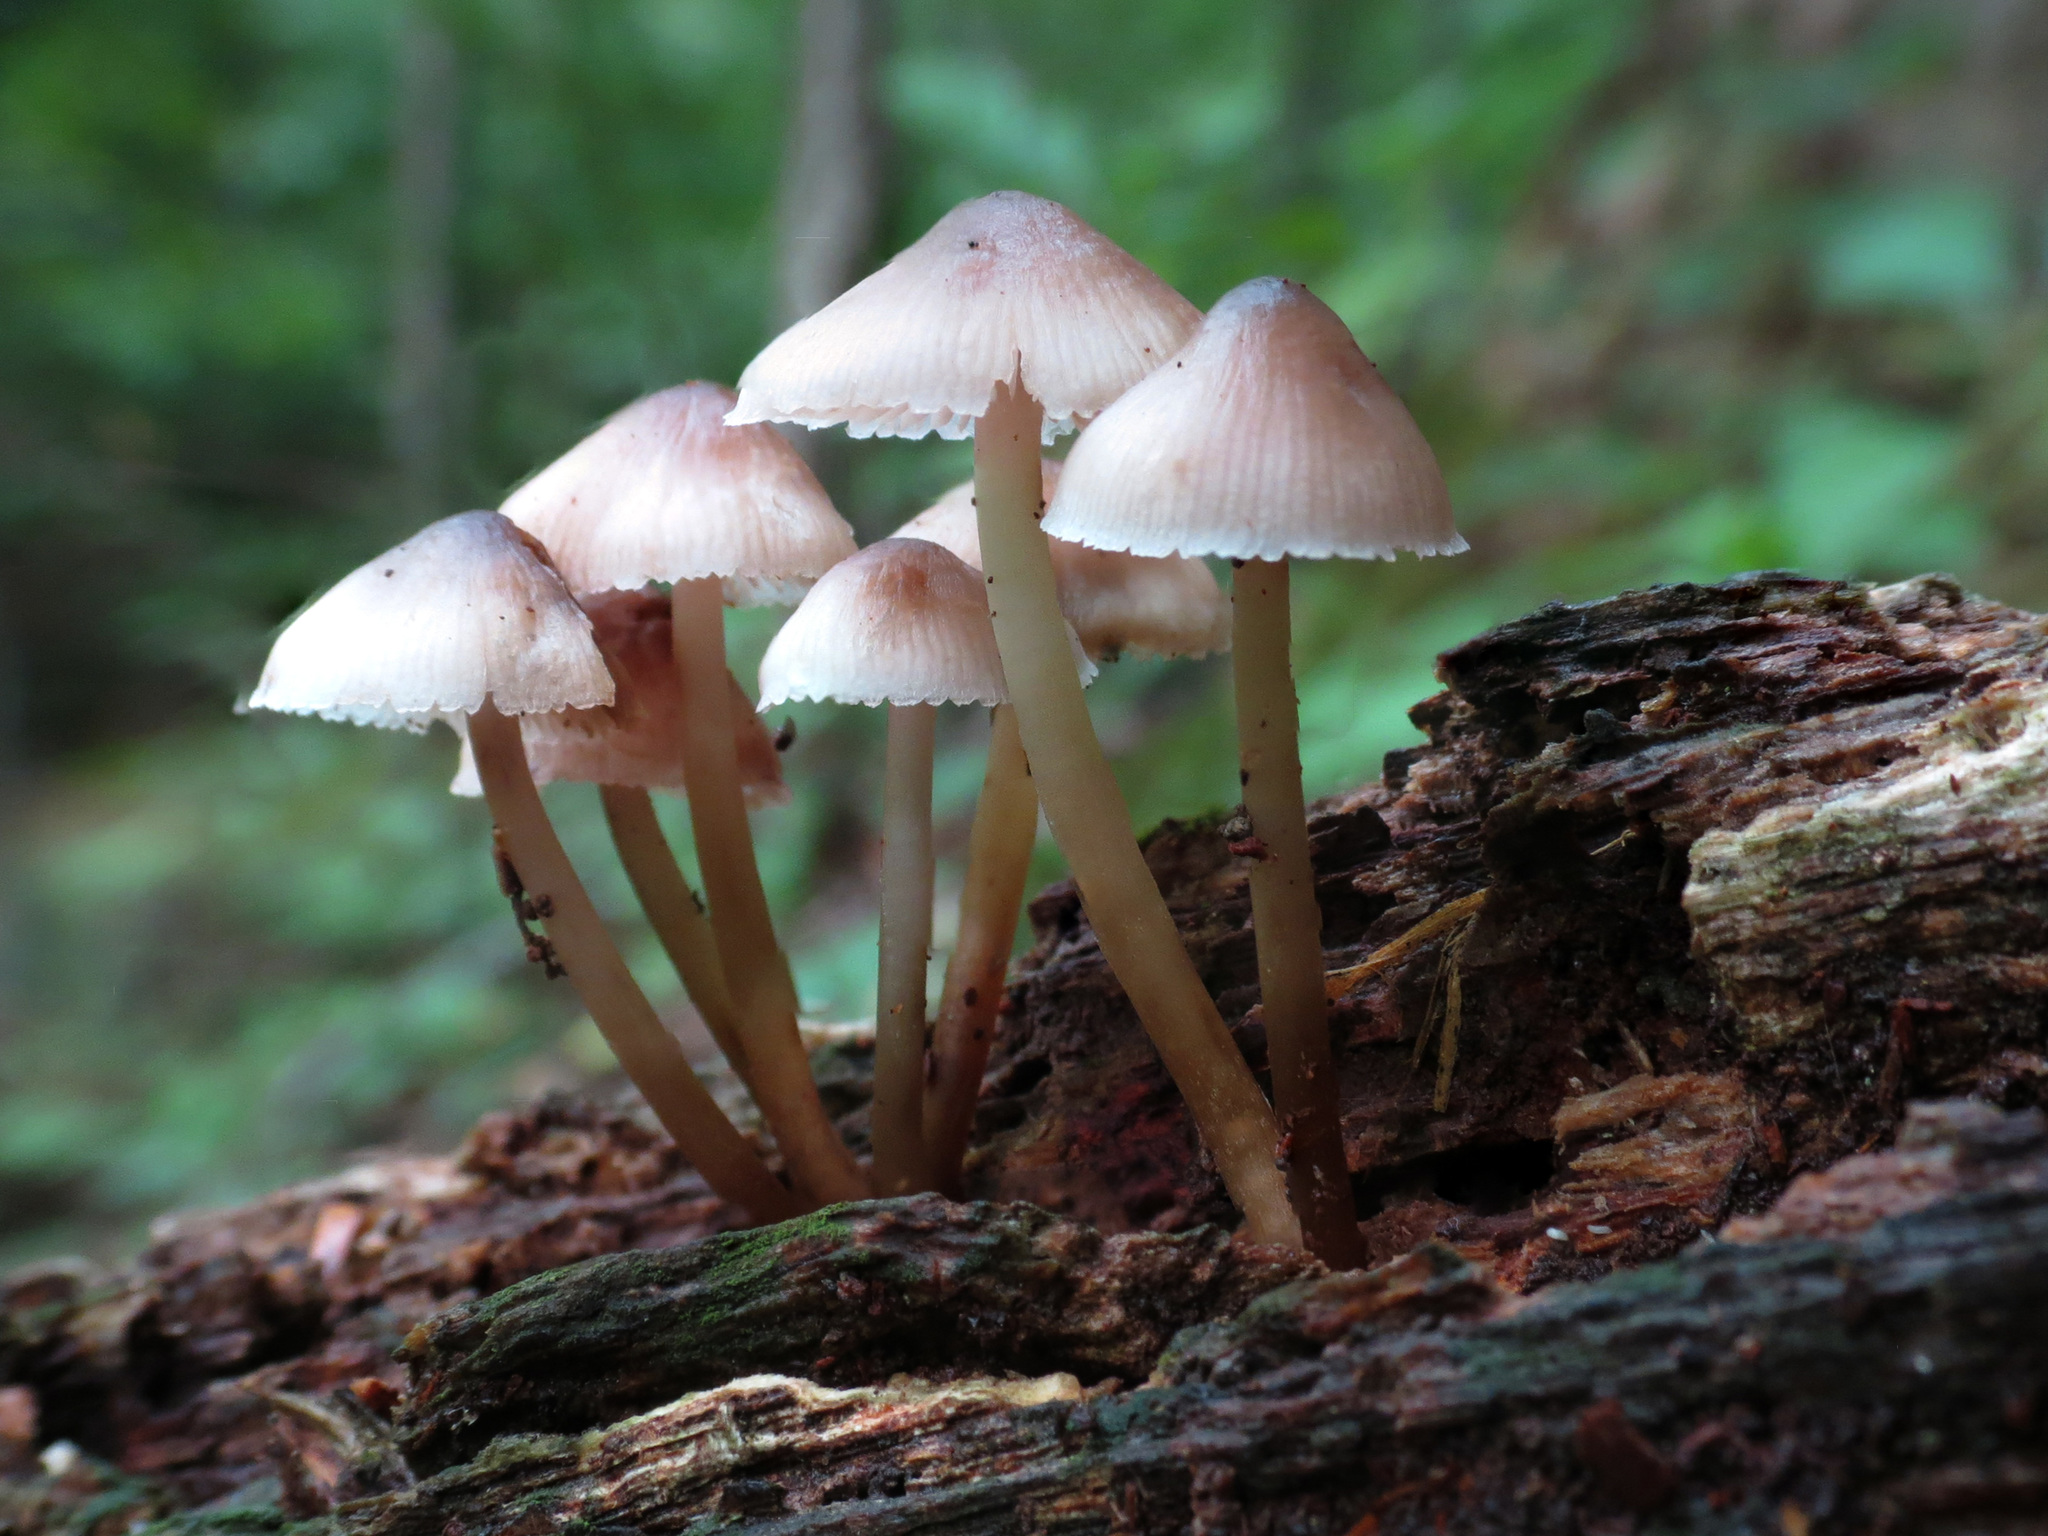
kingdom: Fungi
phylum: Basidiomycota
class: Agaricomycetes
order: Agaricales
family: Mycenaceae
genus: Mycena
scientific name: Mycena haematopus
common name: Burgundydrop bonnet
